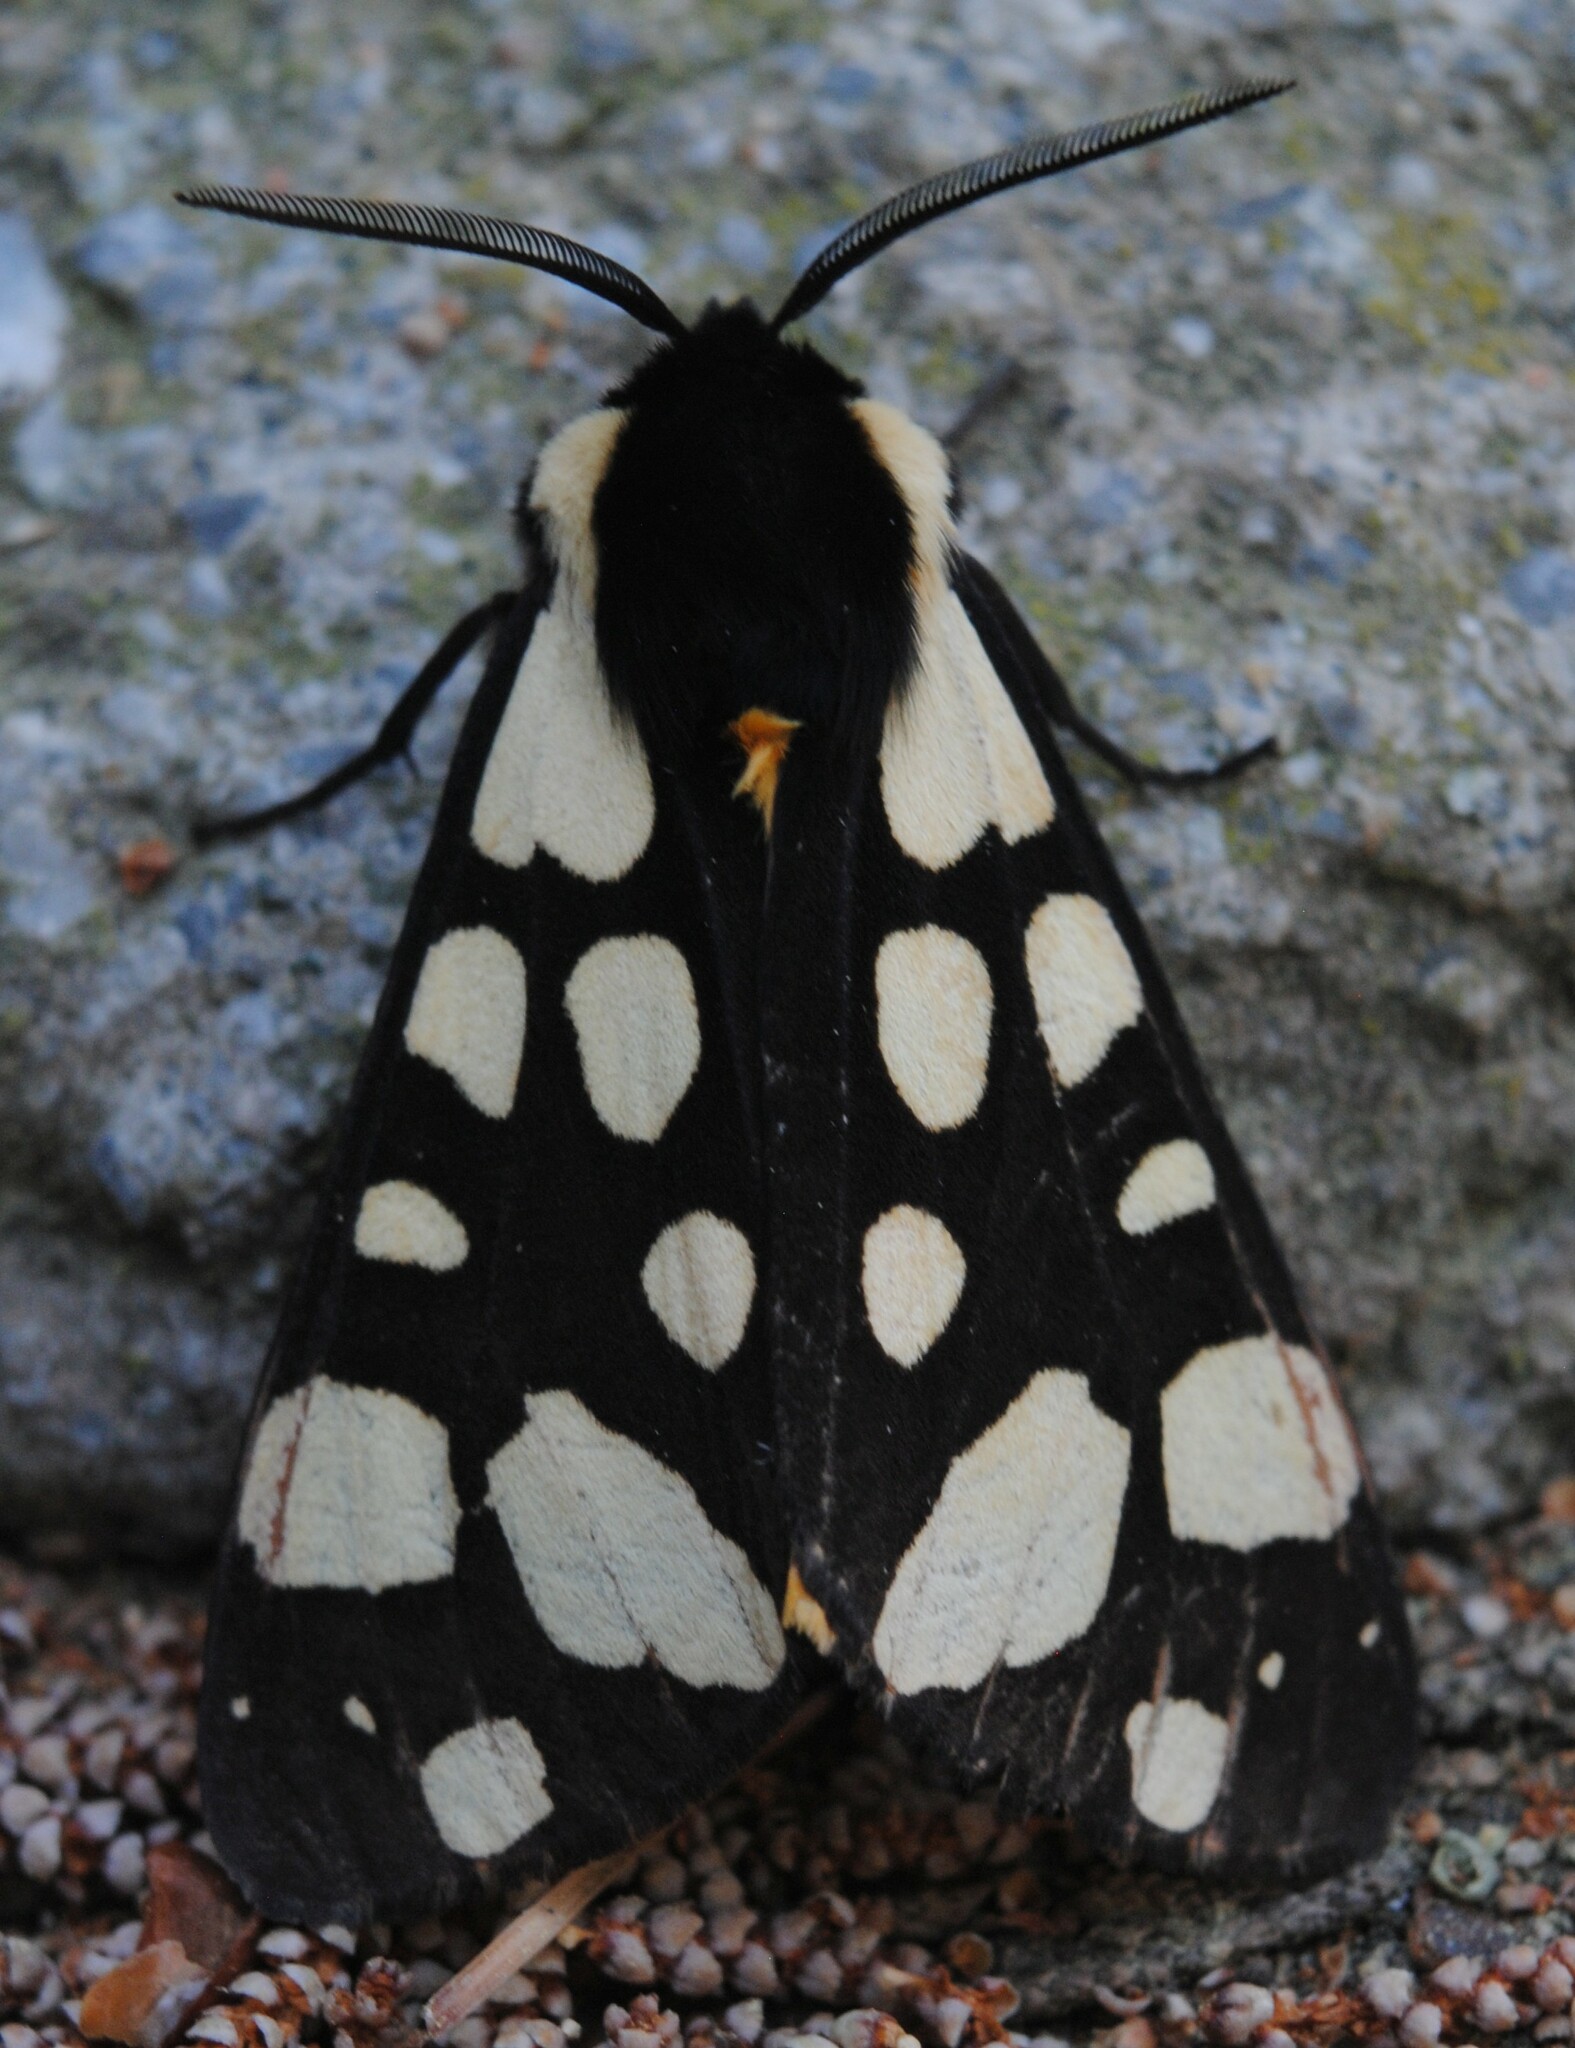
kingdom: Animalia
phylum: Arthropoda
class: Insecta
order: Lepidoptera
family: Erebidae
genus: Epicallia
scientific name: Epicallia villica
